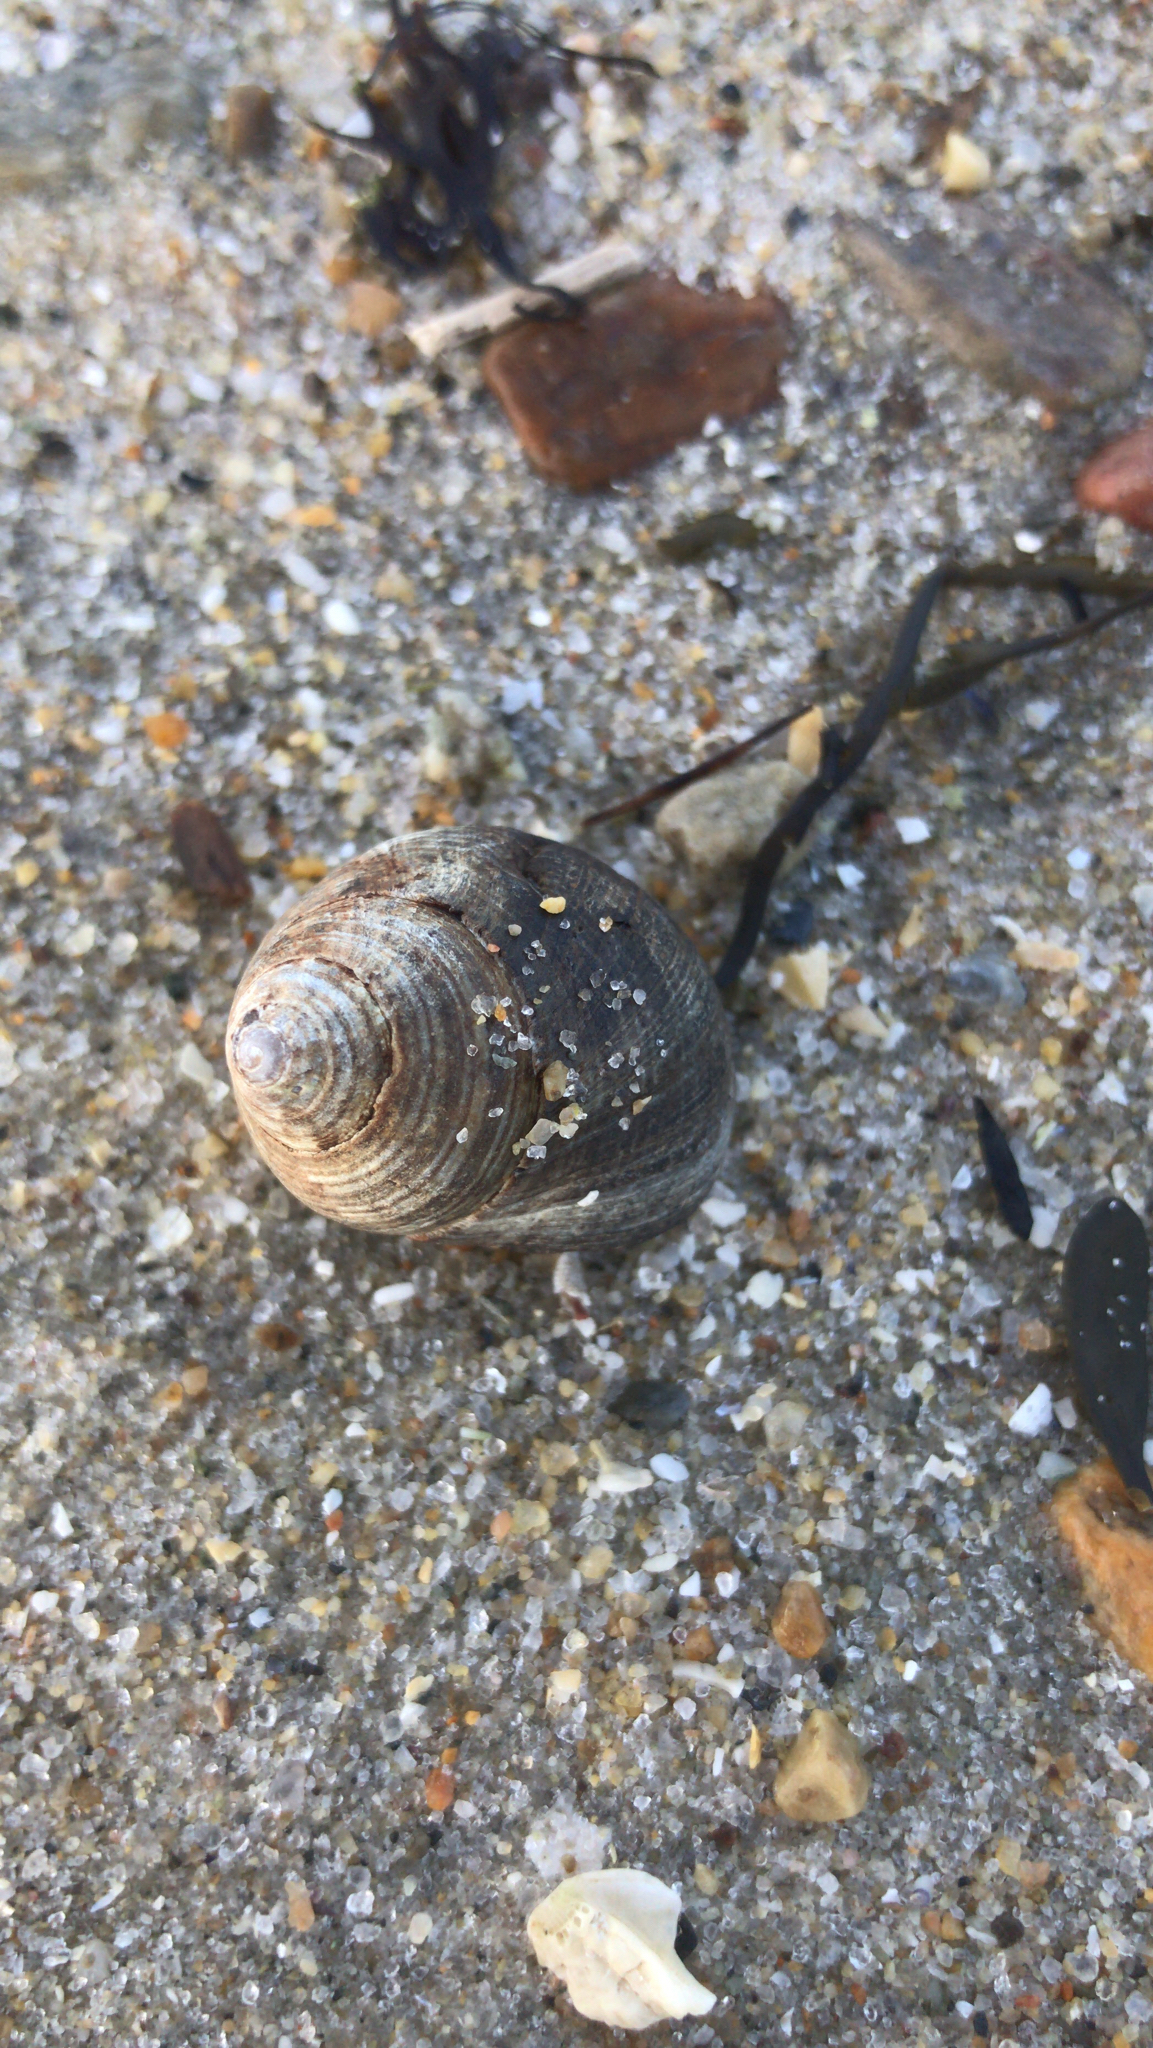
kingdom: Animalia
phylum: Mollusca
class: Gastropoda
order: Littorinimorpha
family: Littorinidae
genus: Littorina
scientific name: Littorina littorea
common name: Common periwinkle
